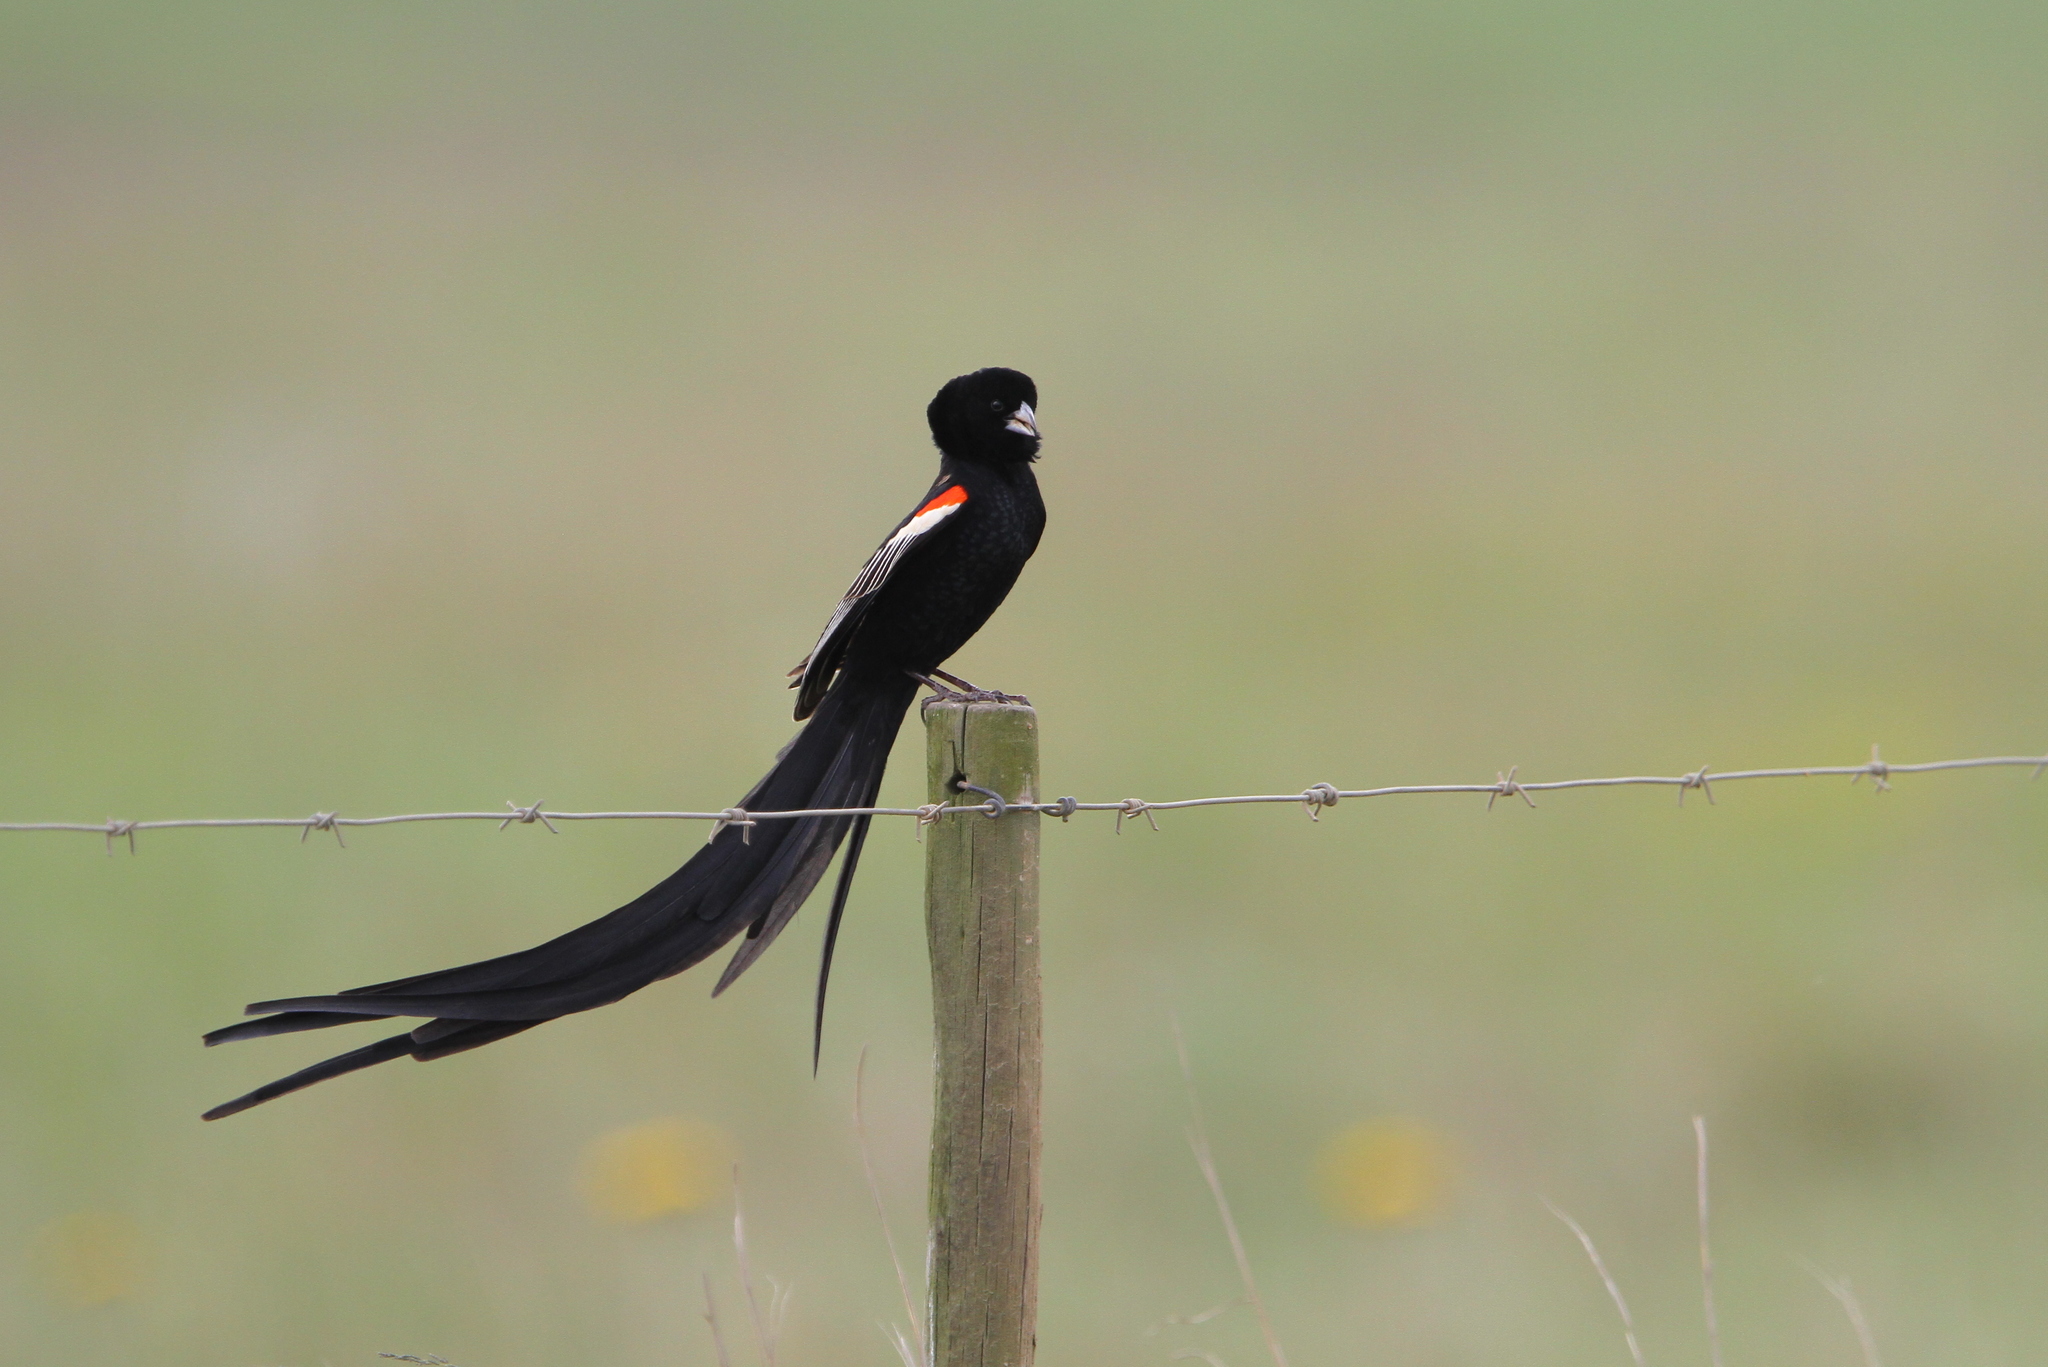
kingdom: Animalia
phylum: Chordata
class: Aves
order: Passeriformes
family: Ploceidae
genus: Euplectes
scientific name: Euplectes progne
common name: Long-tailed widowbird
